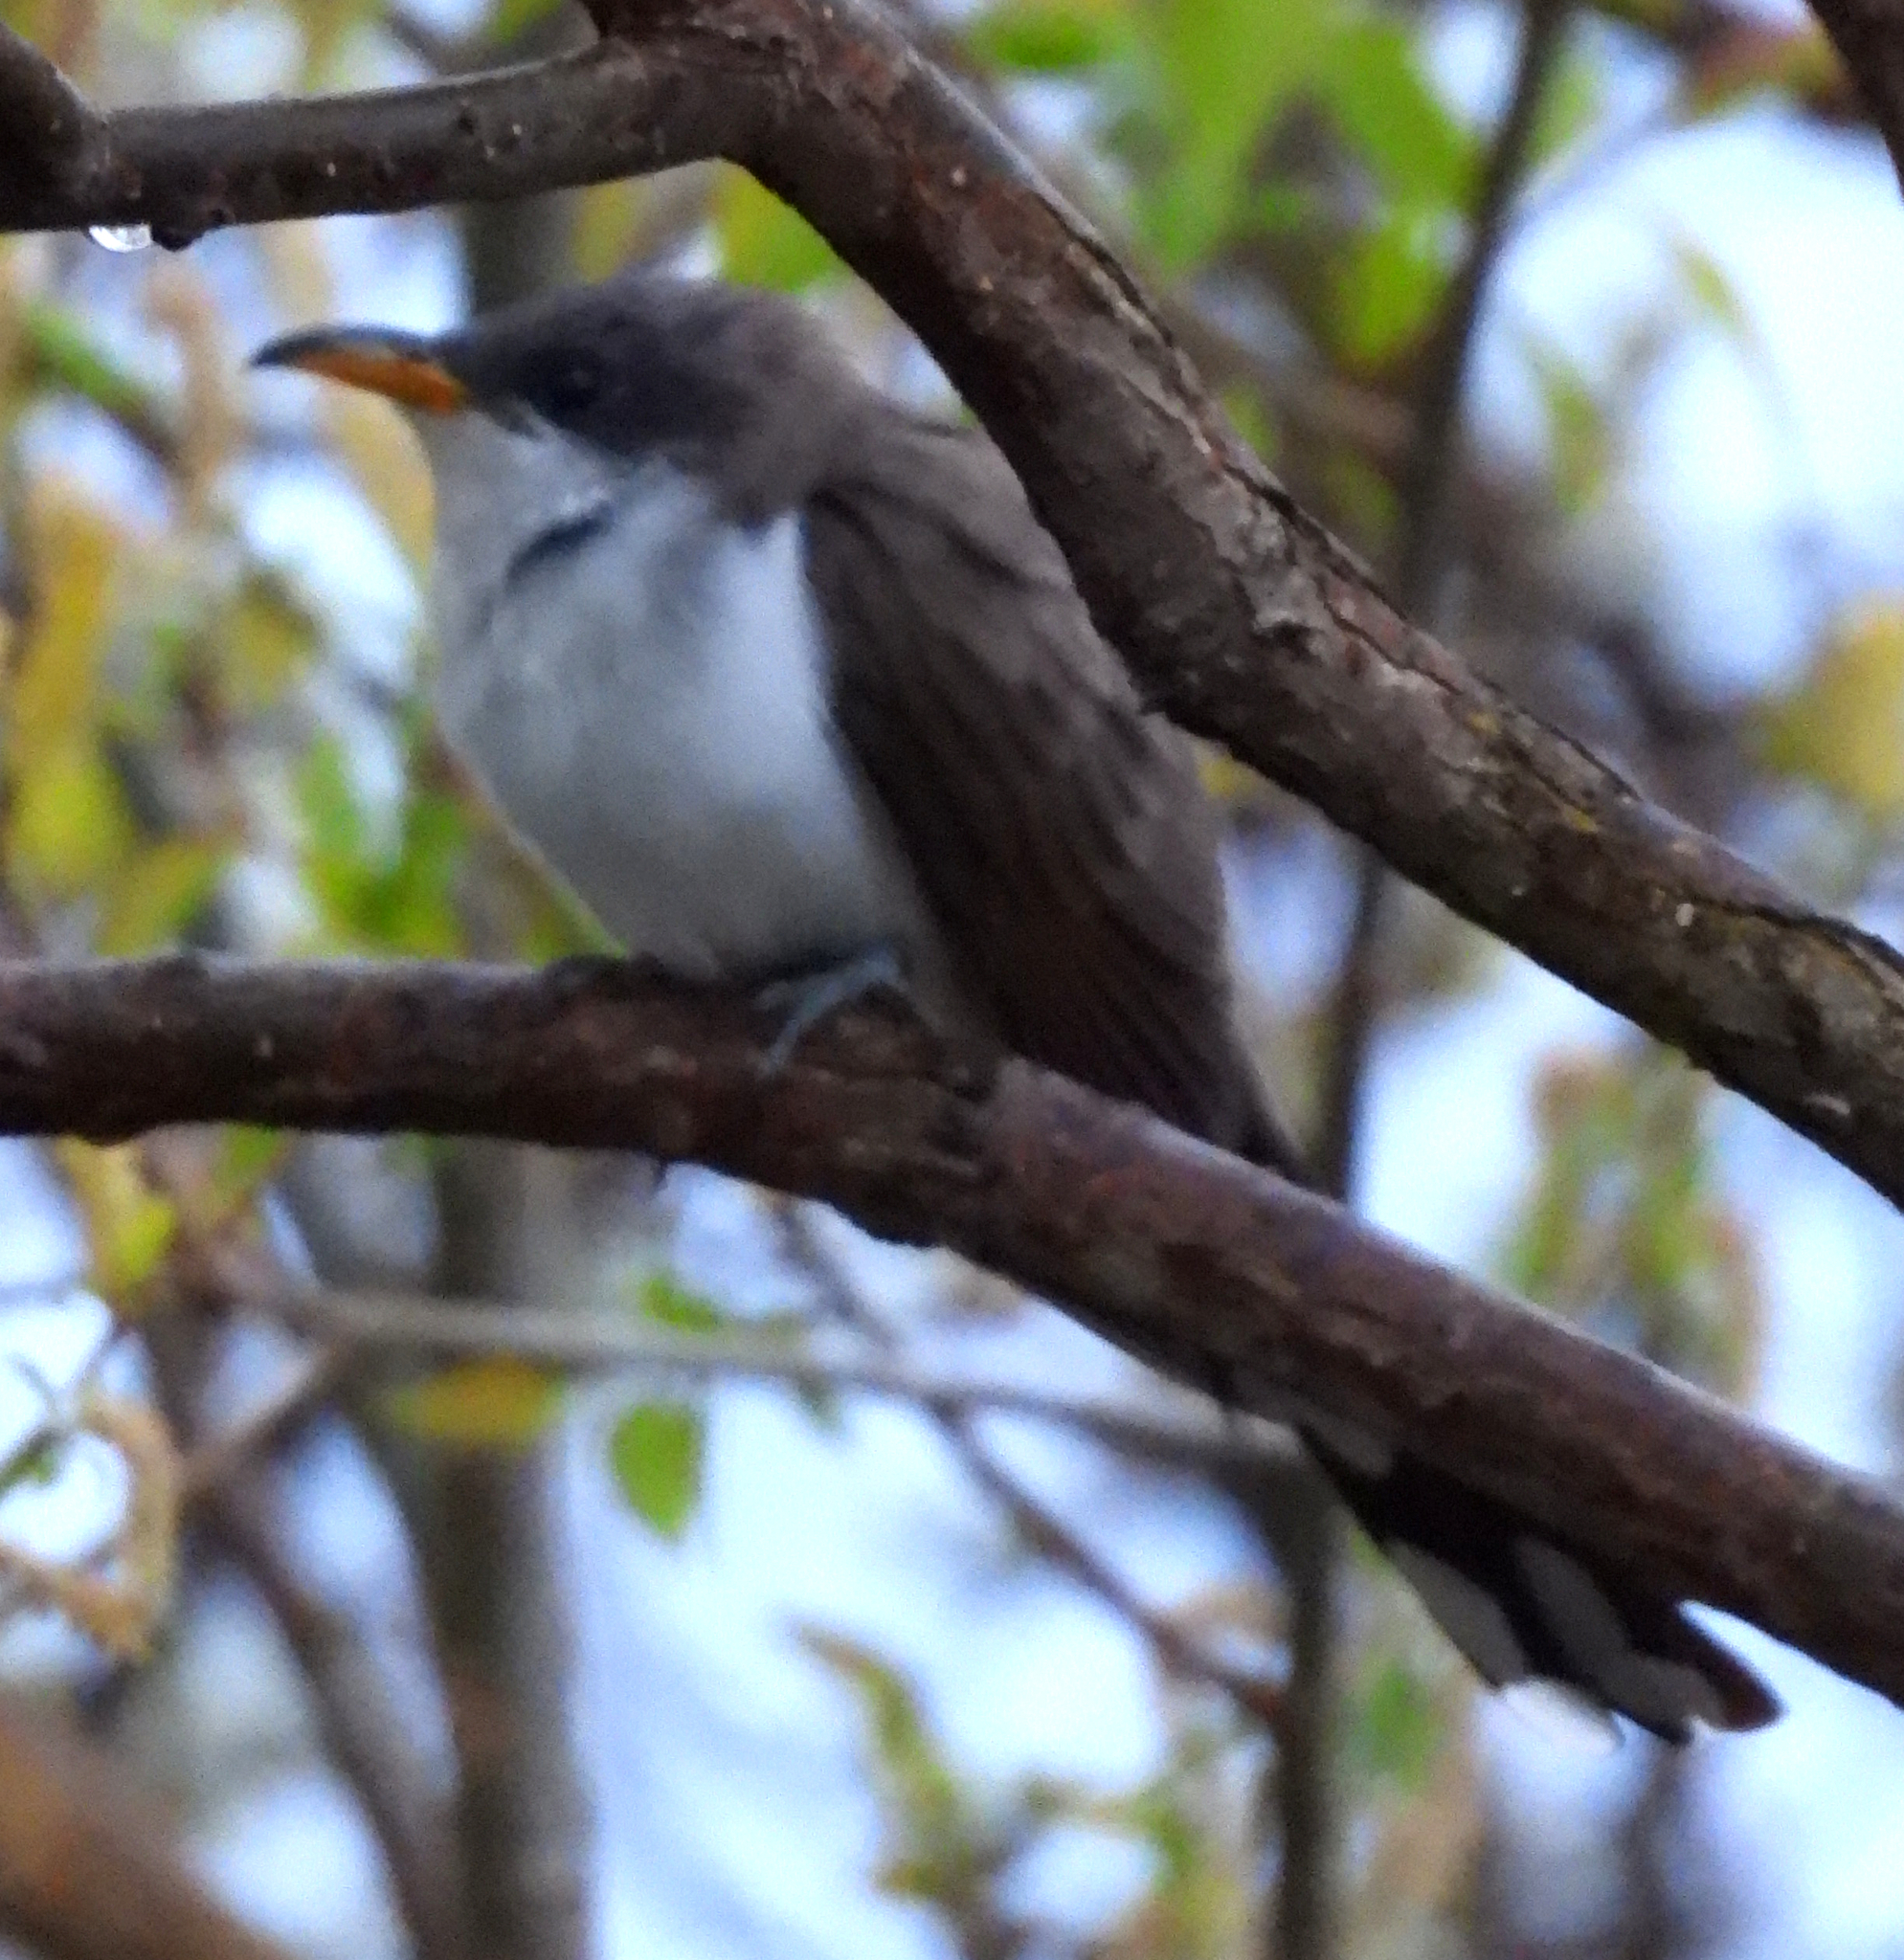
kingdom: Animalia
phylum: Chordata
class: Aves
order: Cuculiformes
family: Cuculidae
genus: Coccyzus
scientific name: Coccyzus americanus
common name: Yellow-billed cuckoo
